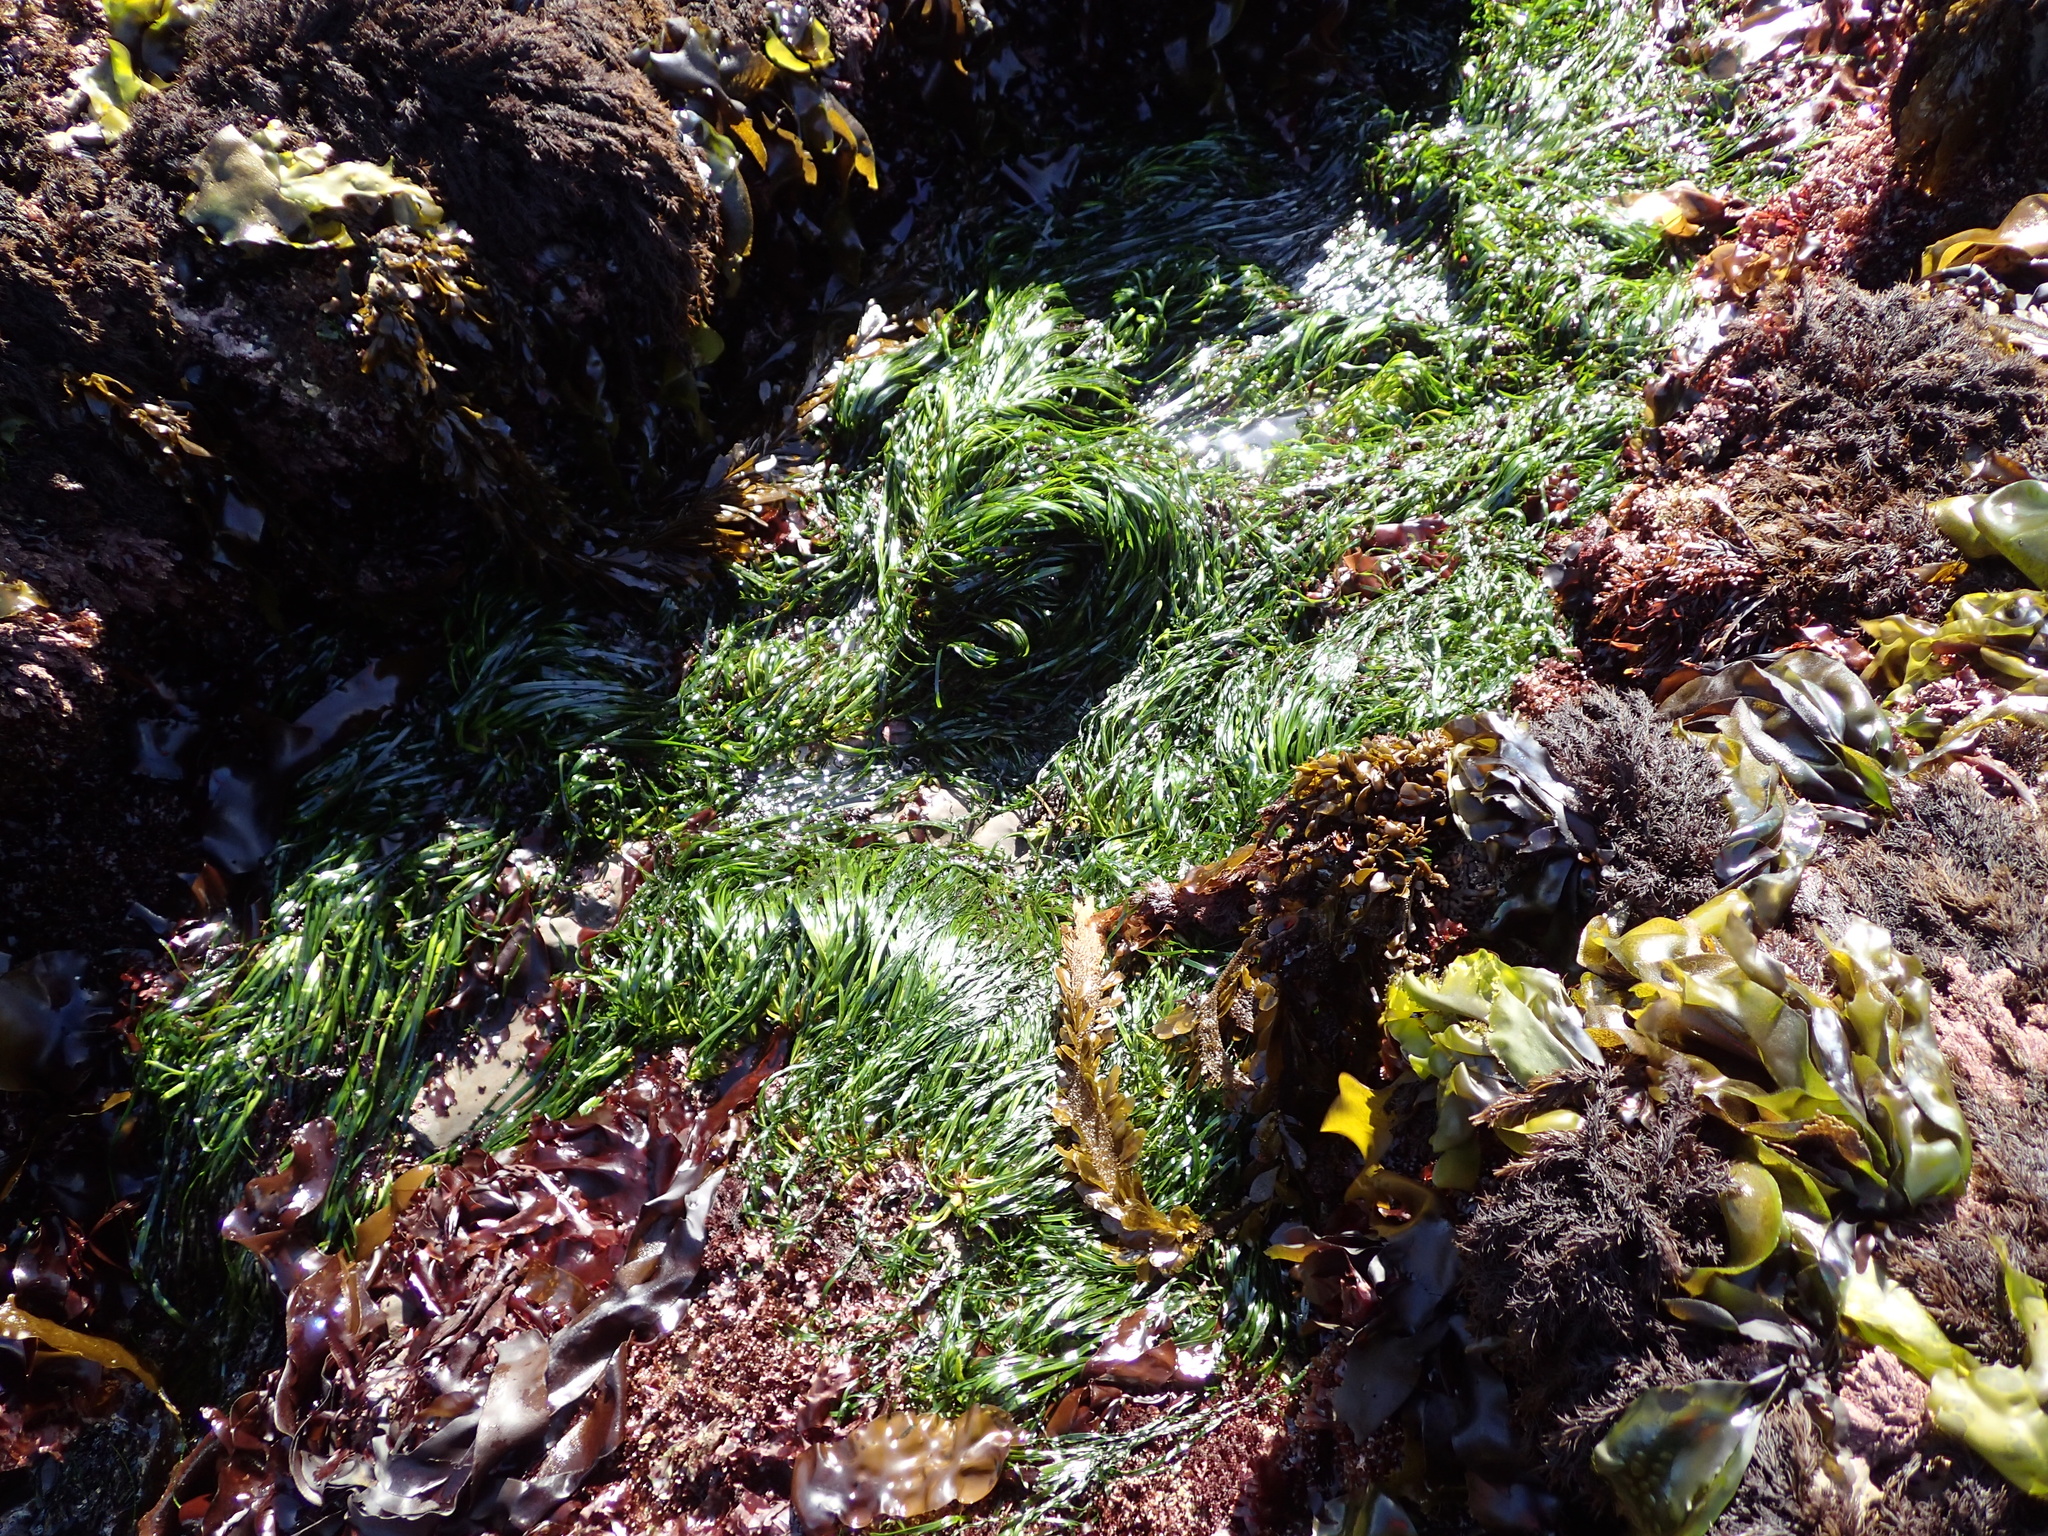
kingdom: Plantae
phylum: Tracheophyta
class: Liliopsida
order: Alismatales
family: Zosteraceae
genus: Phyllospadix
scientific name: Phyllospadix scouleri
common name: Species code: ps
